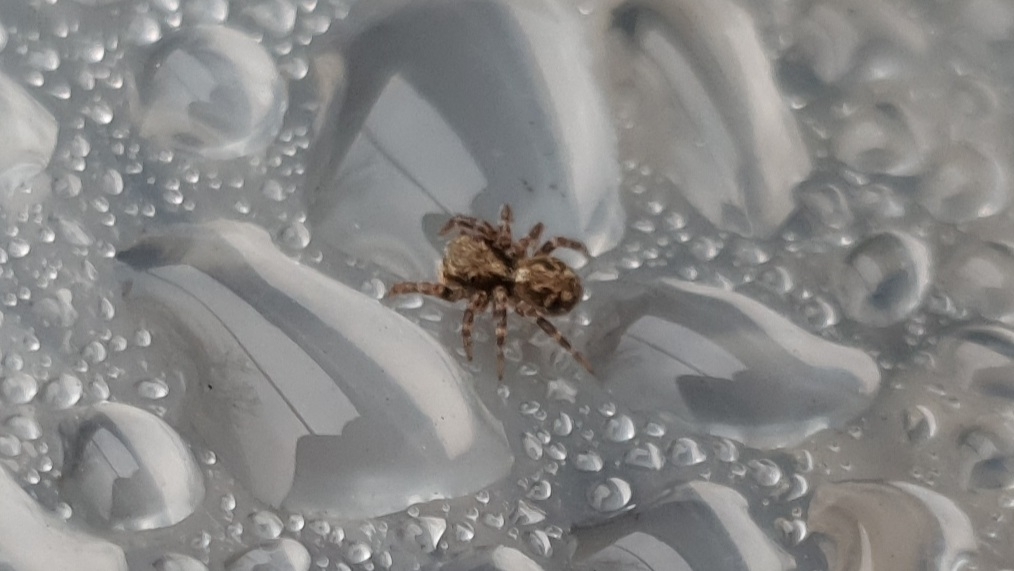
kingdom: Animalia
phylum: Arthropoda
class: Arachnida
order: Araneae
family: Salticidae
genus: Pseudeuophrys
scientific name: Pseudeuophrys lanigera
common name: Jumping spider
